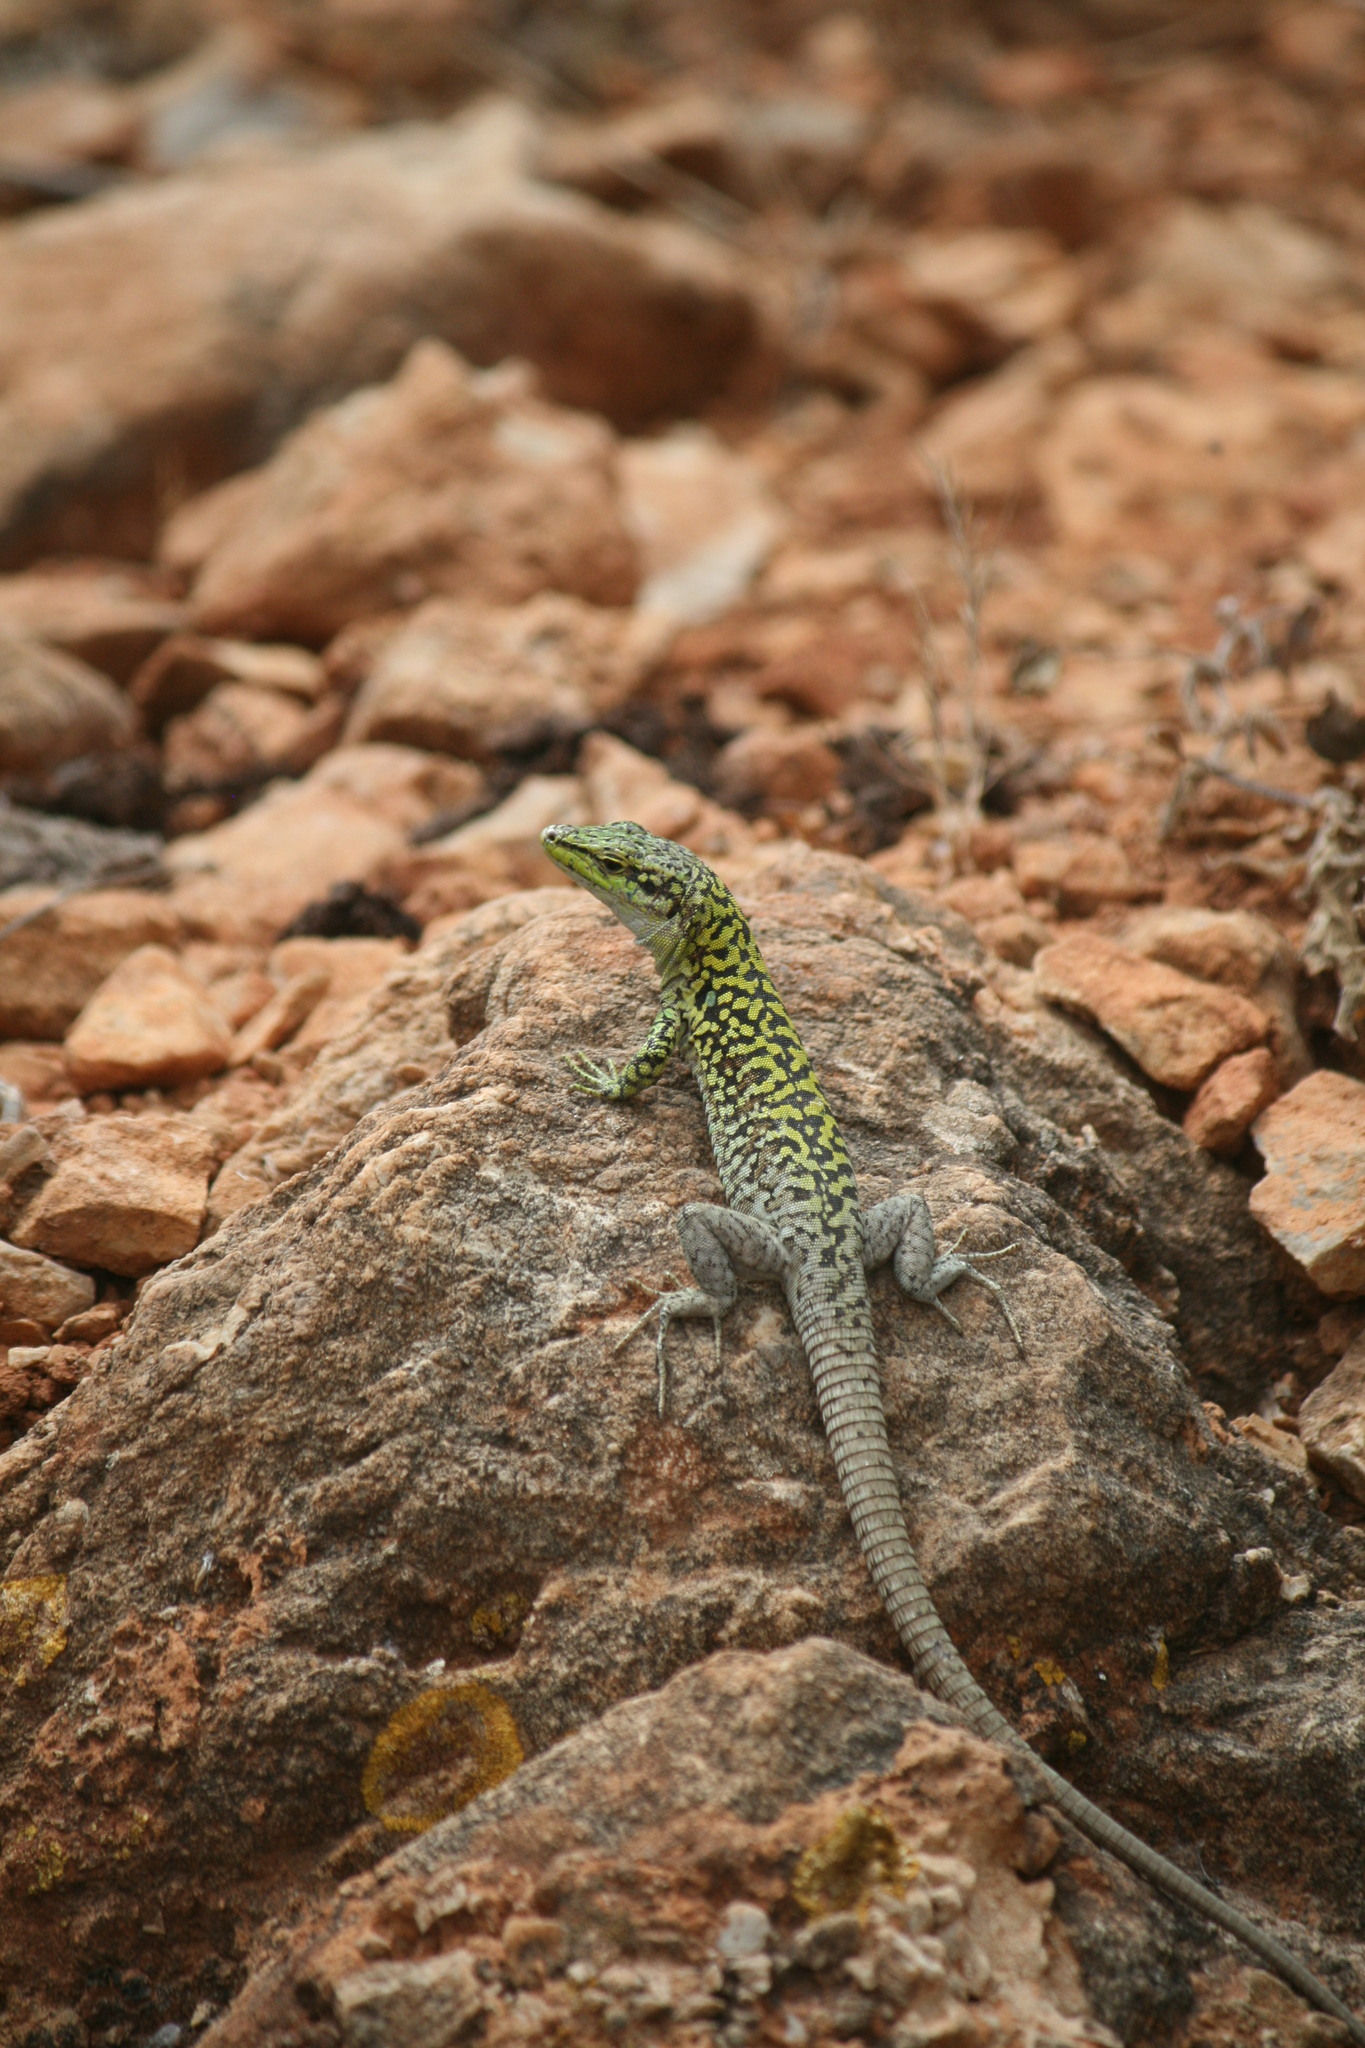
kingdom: Animalia
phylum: Chordata
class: Squamata
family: Lacertidae
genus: Podarcis
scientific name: Podarcis siculus
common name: Italian wall lizard
